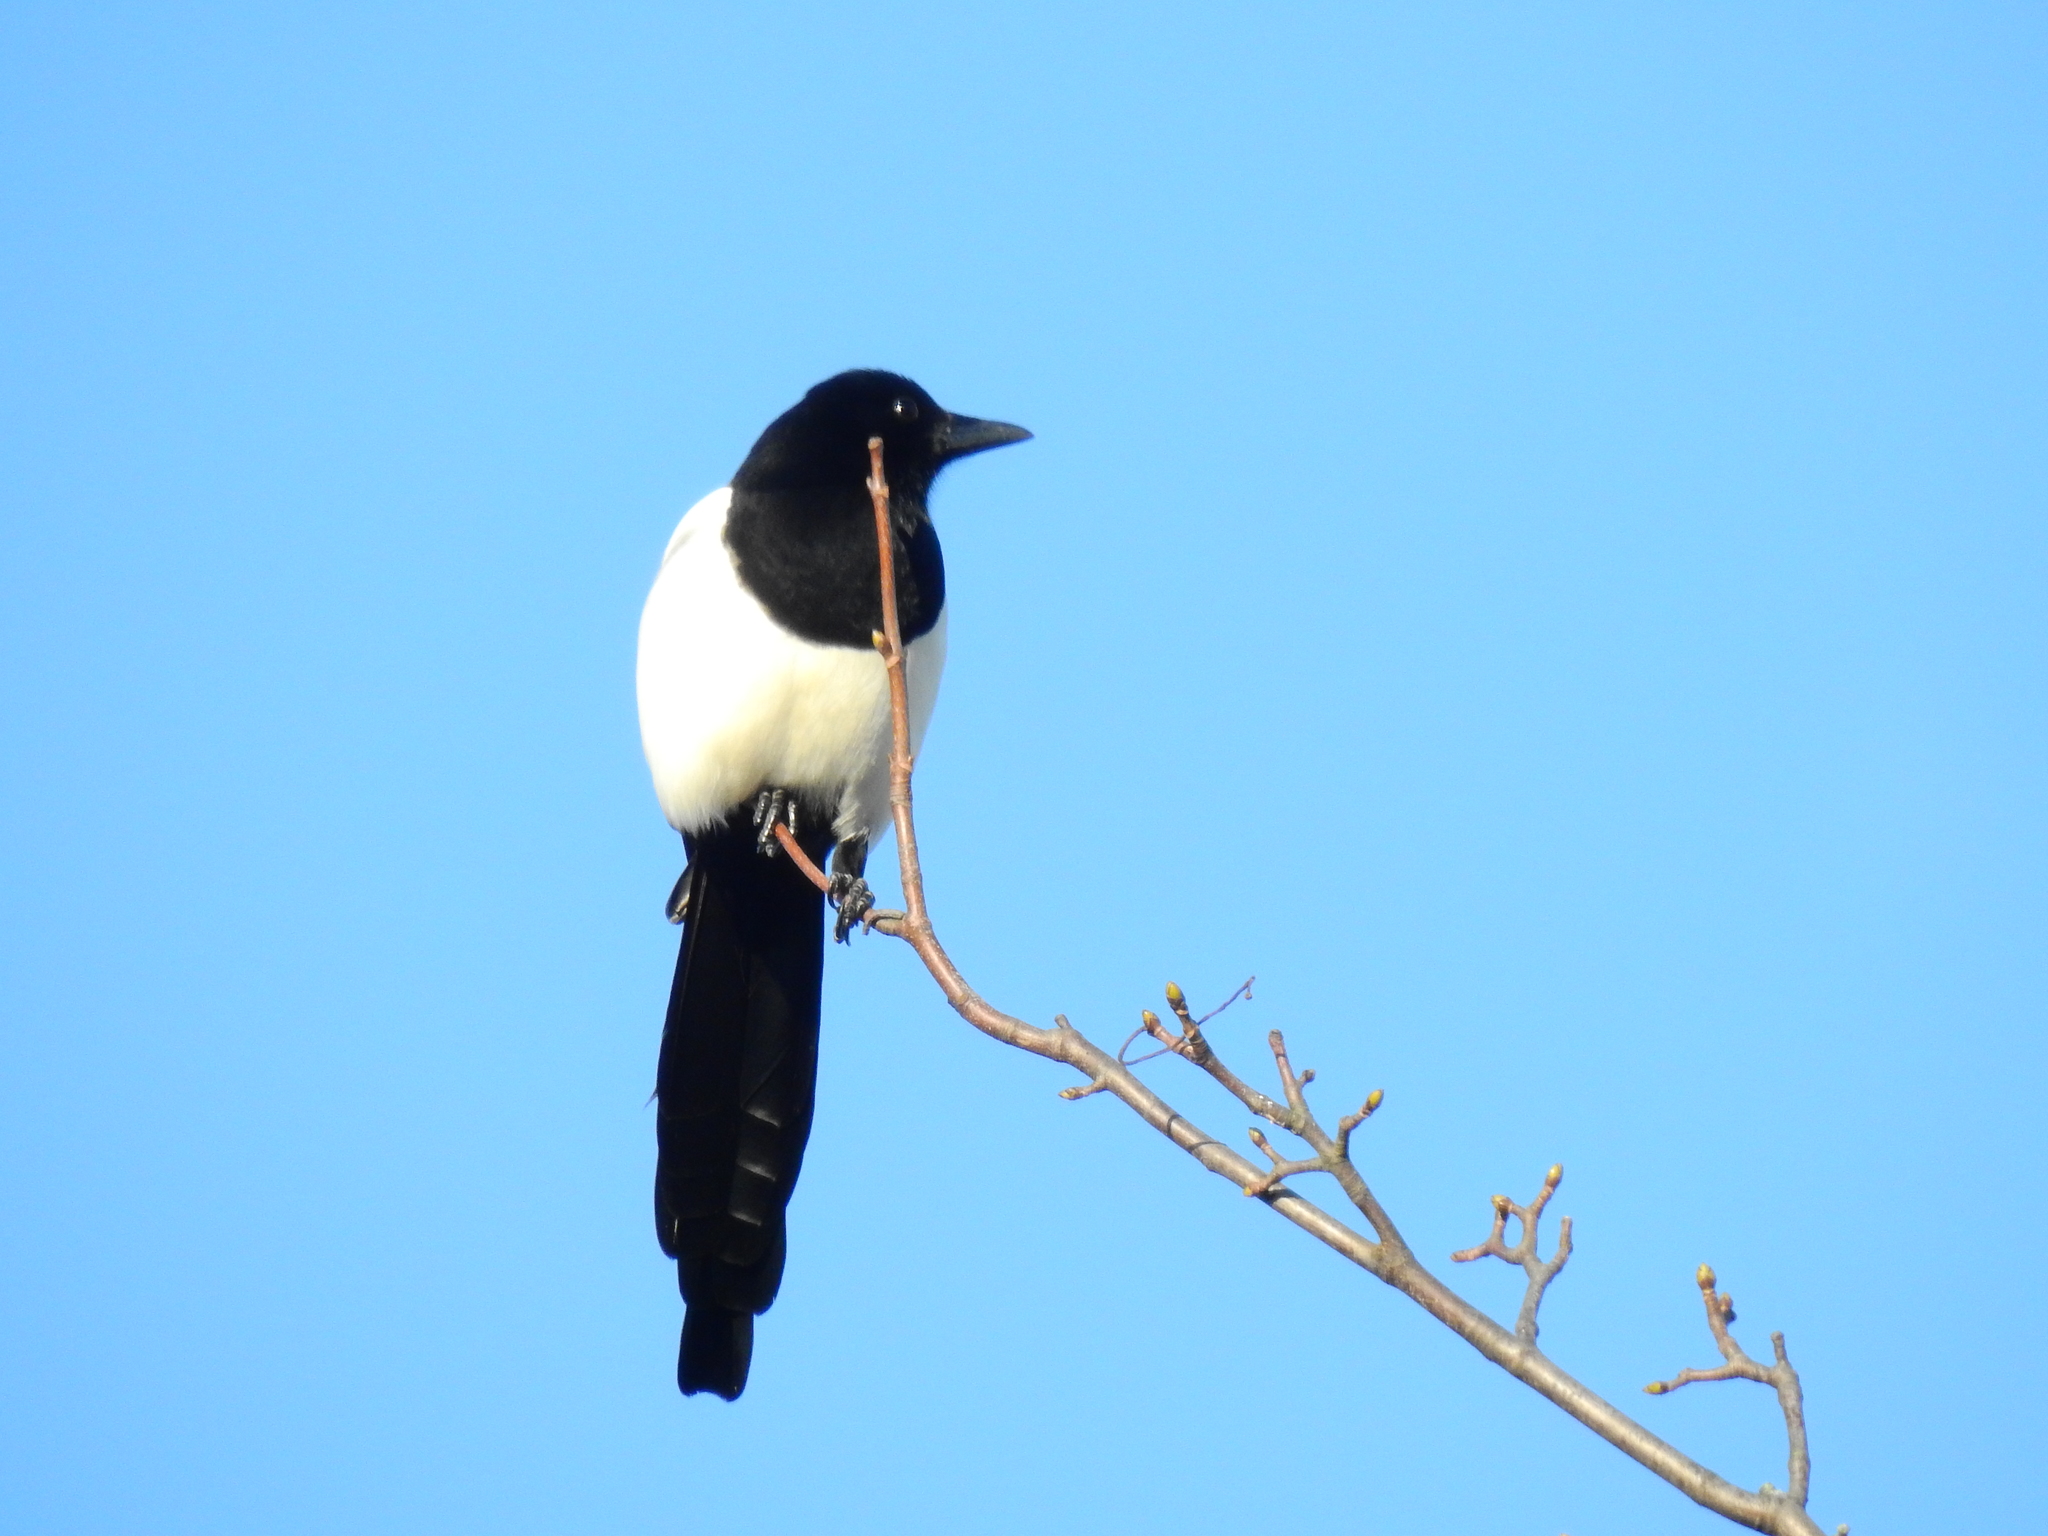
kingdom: Animalia
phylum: Chordata
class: Aves
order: Passeriformes
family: Corvidae
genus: Pica
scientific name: Pica pica
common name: Eurasian magpie
